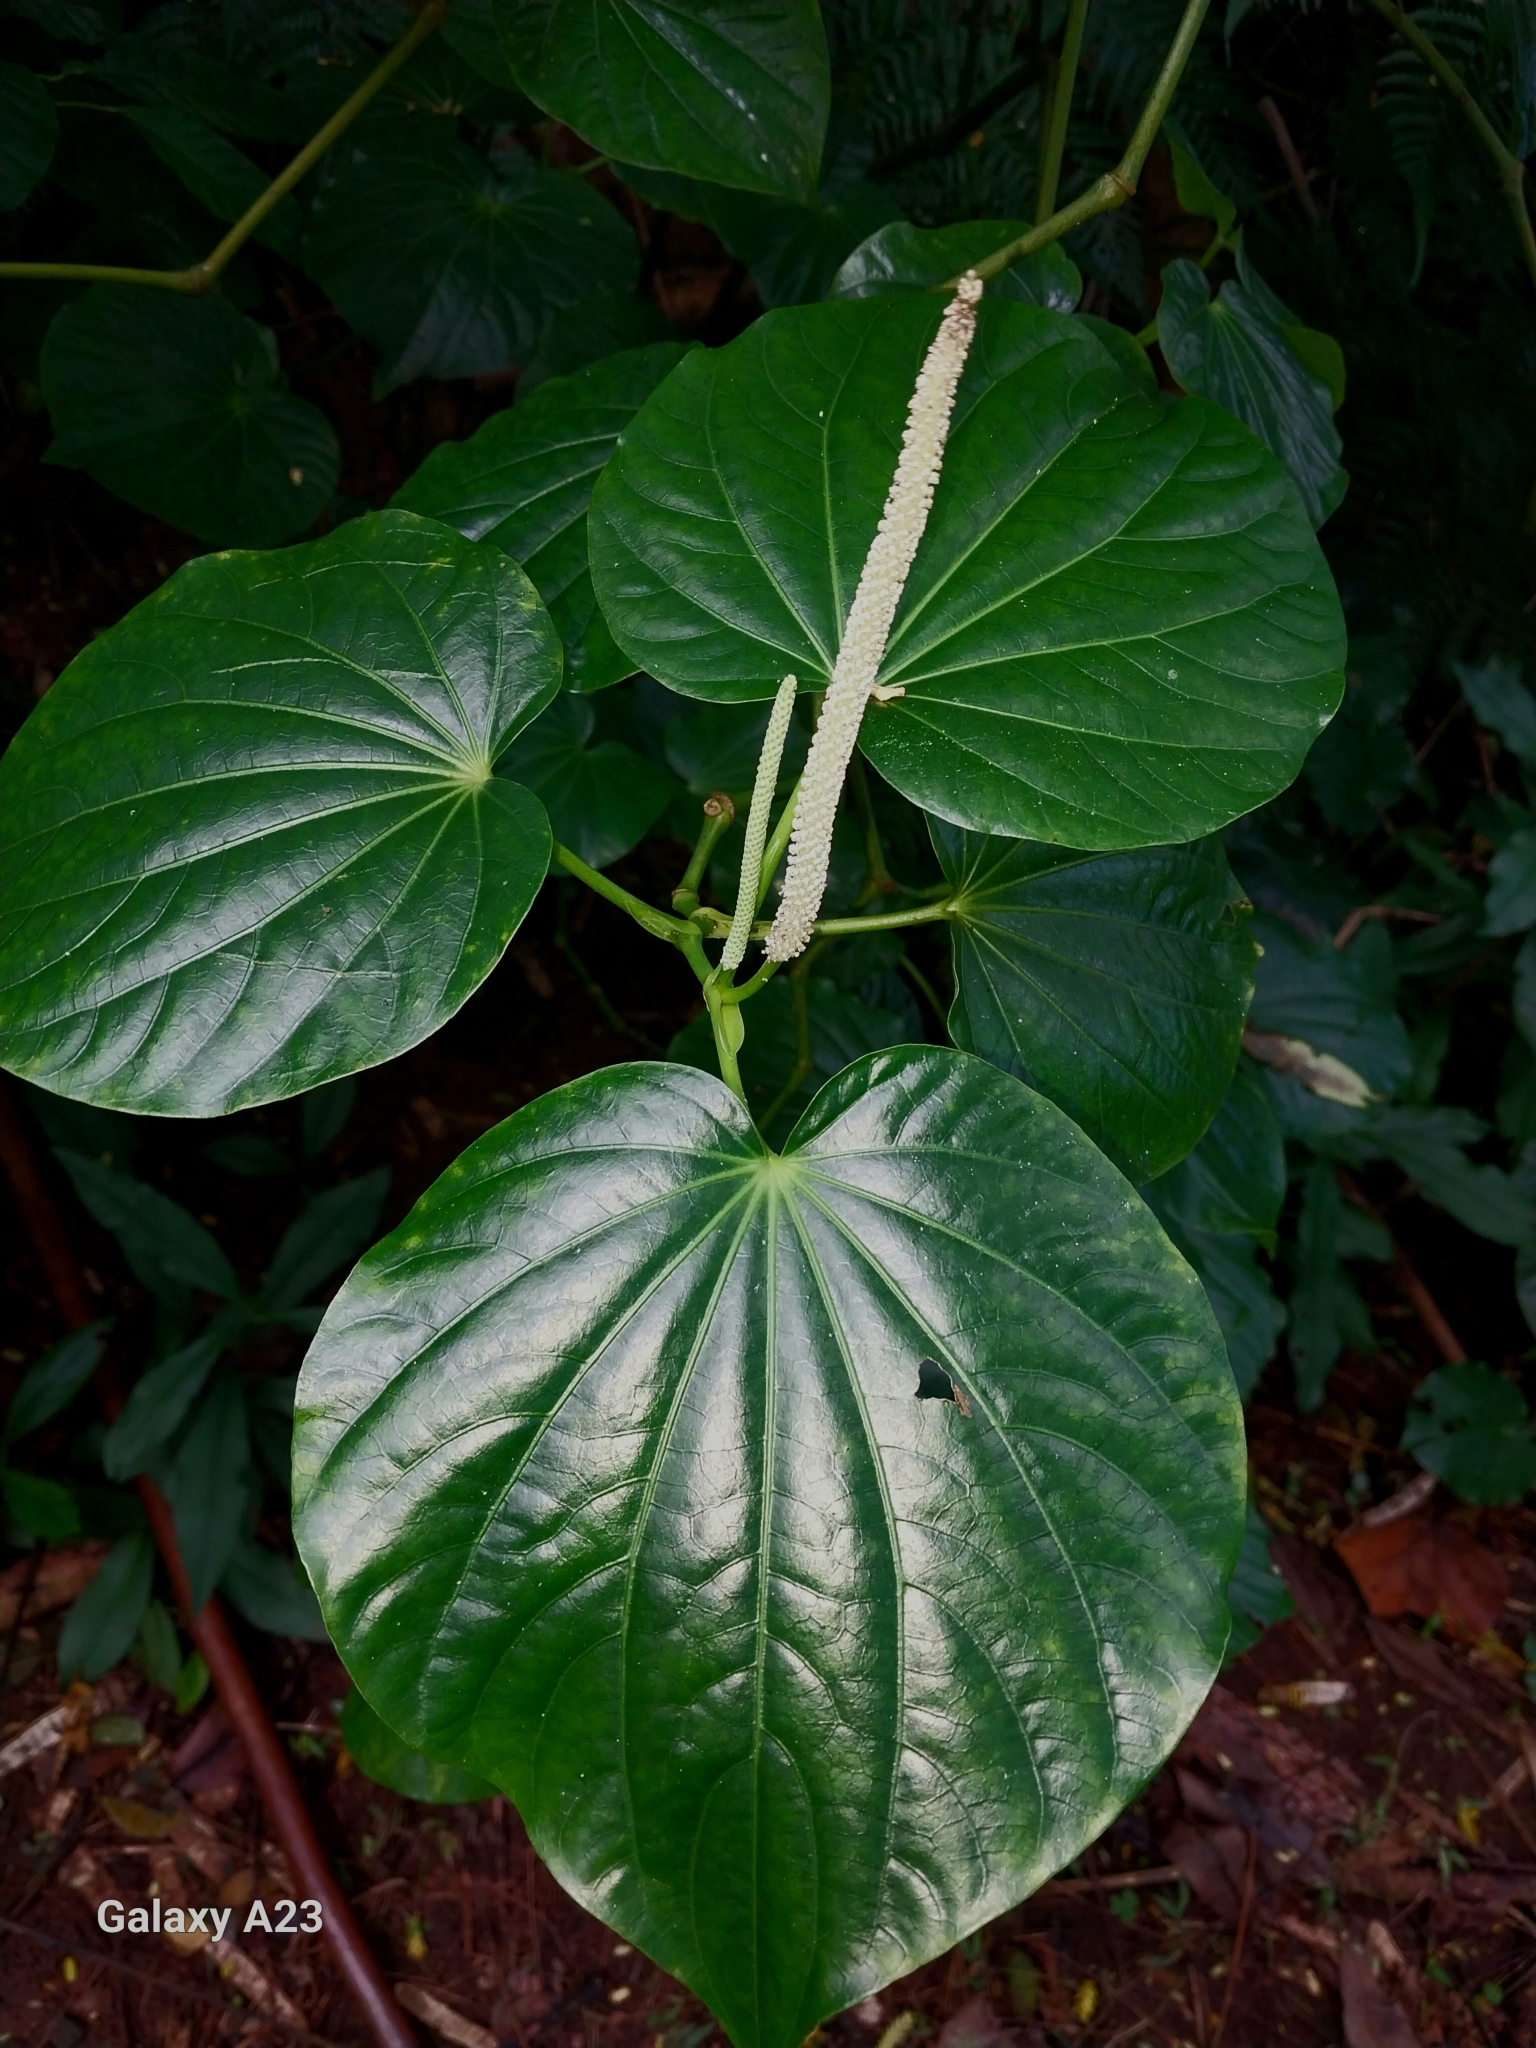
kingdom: Plantae
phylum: Tracheophyta
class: Magnoliopsida
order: Piperales
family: Piperaceae
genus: Piper
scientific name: Piper latifolium
